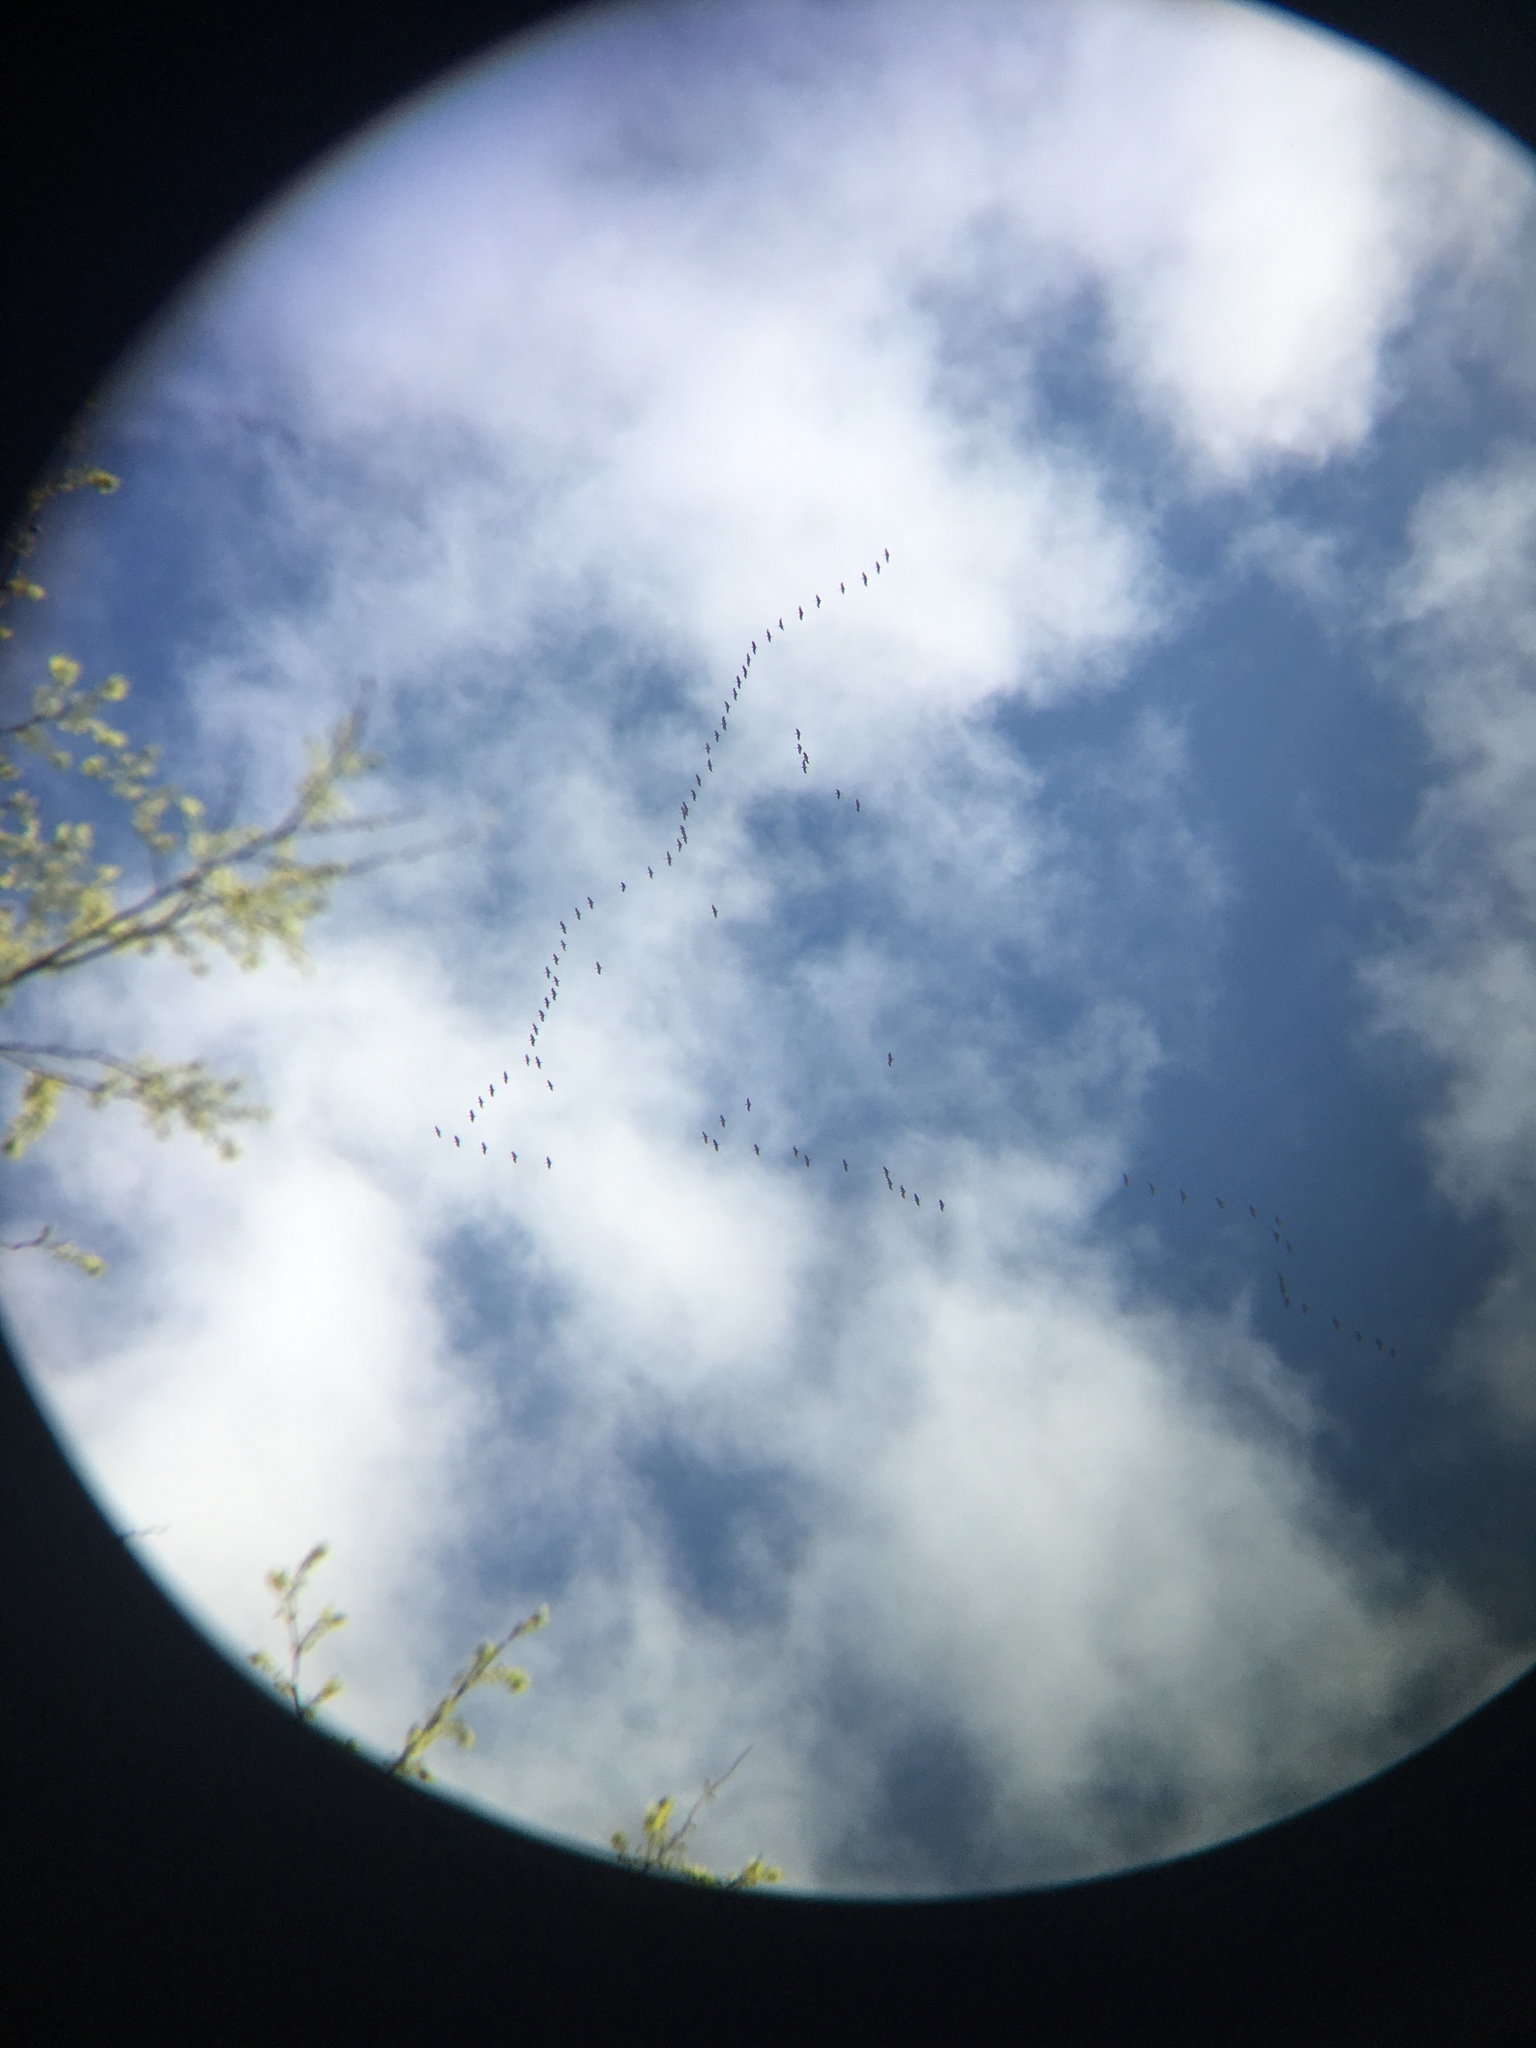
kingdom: Animalia
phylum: Chordata
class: Aves
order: Gruiformes
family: Gruidae
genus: Grus
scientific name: Grus canadensis
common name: Sandhill crane
